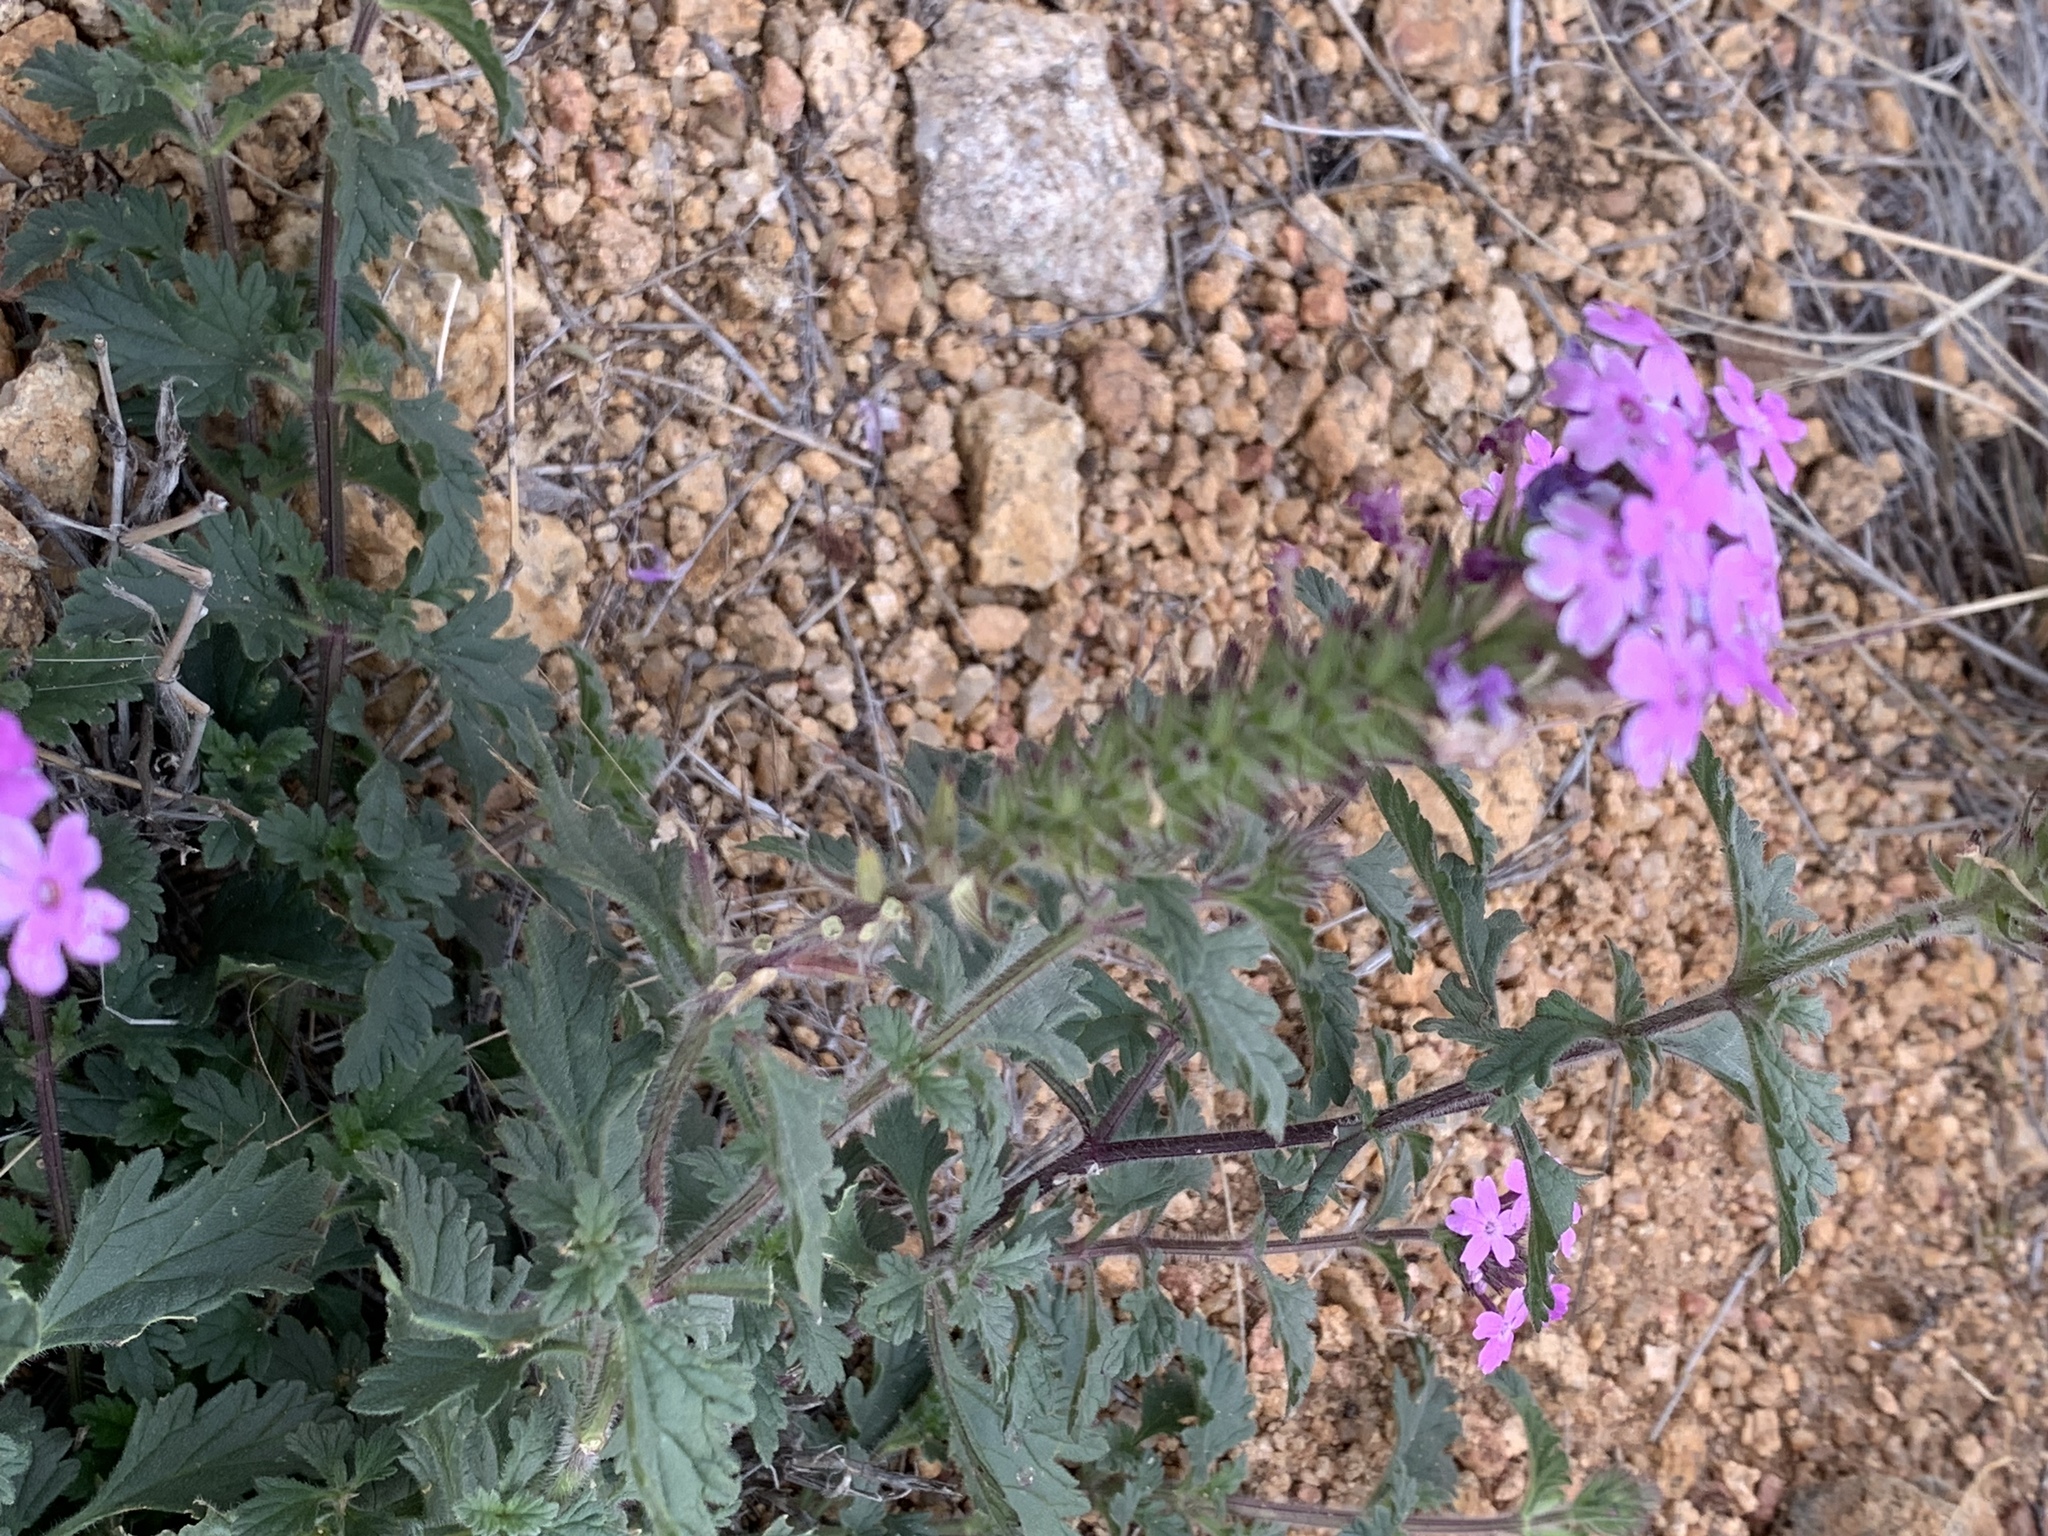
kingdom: Plantae
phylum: Tracheophyta
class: Magnoliopsida
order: Lamiales
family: Verbenaceae
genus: Verbena
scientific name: Verbena gooddingii
